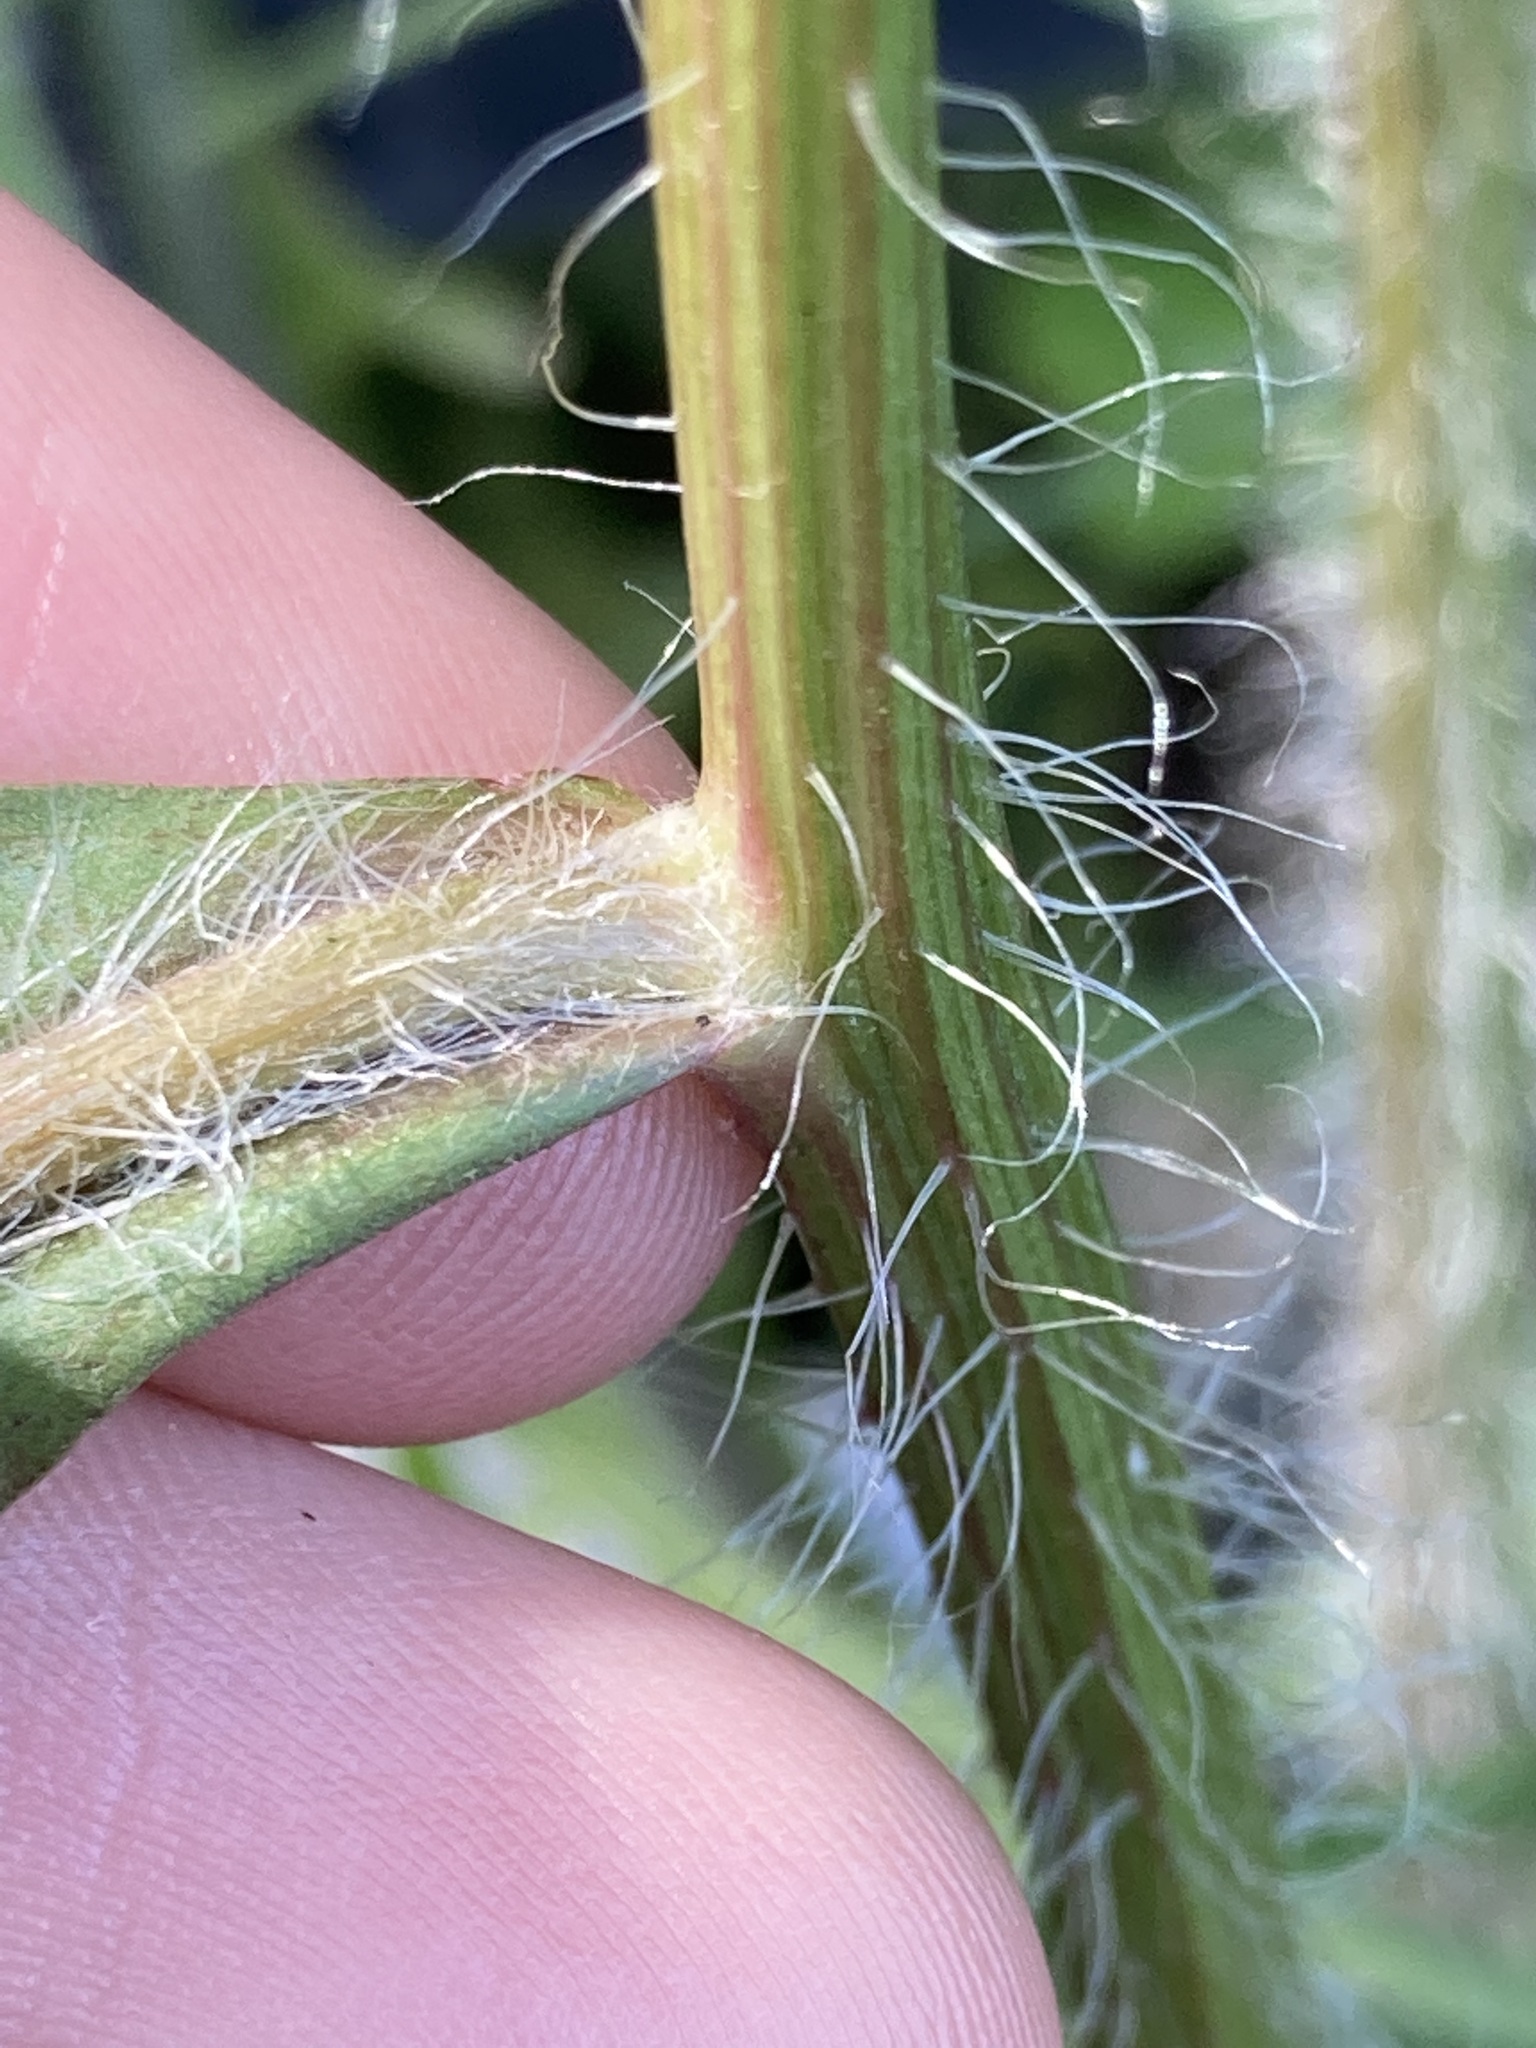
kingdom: Plantae
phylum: Tracheophyta
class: Magnoliopsida
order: Asterales
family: Asteraceae
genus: Hypochaeris
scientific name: Hypochaeris albiflora
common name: White flatweed
